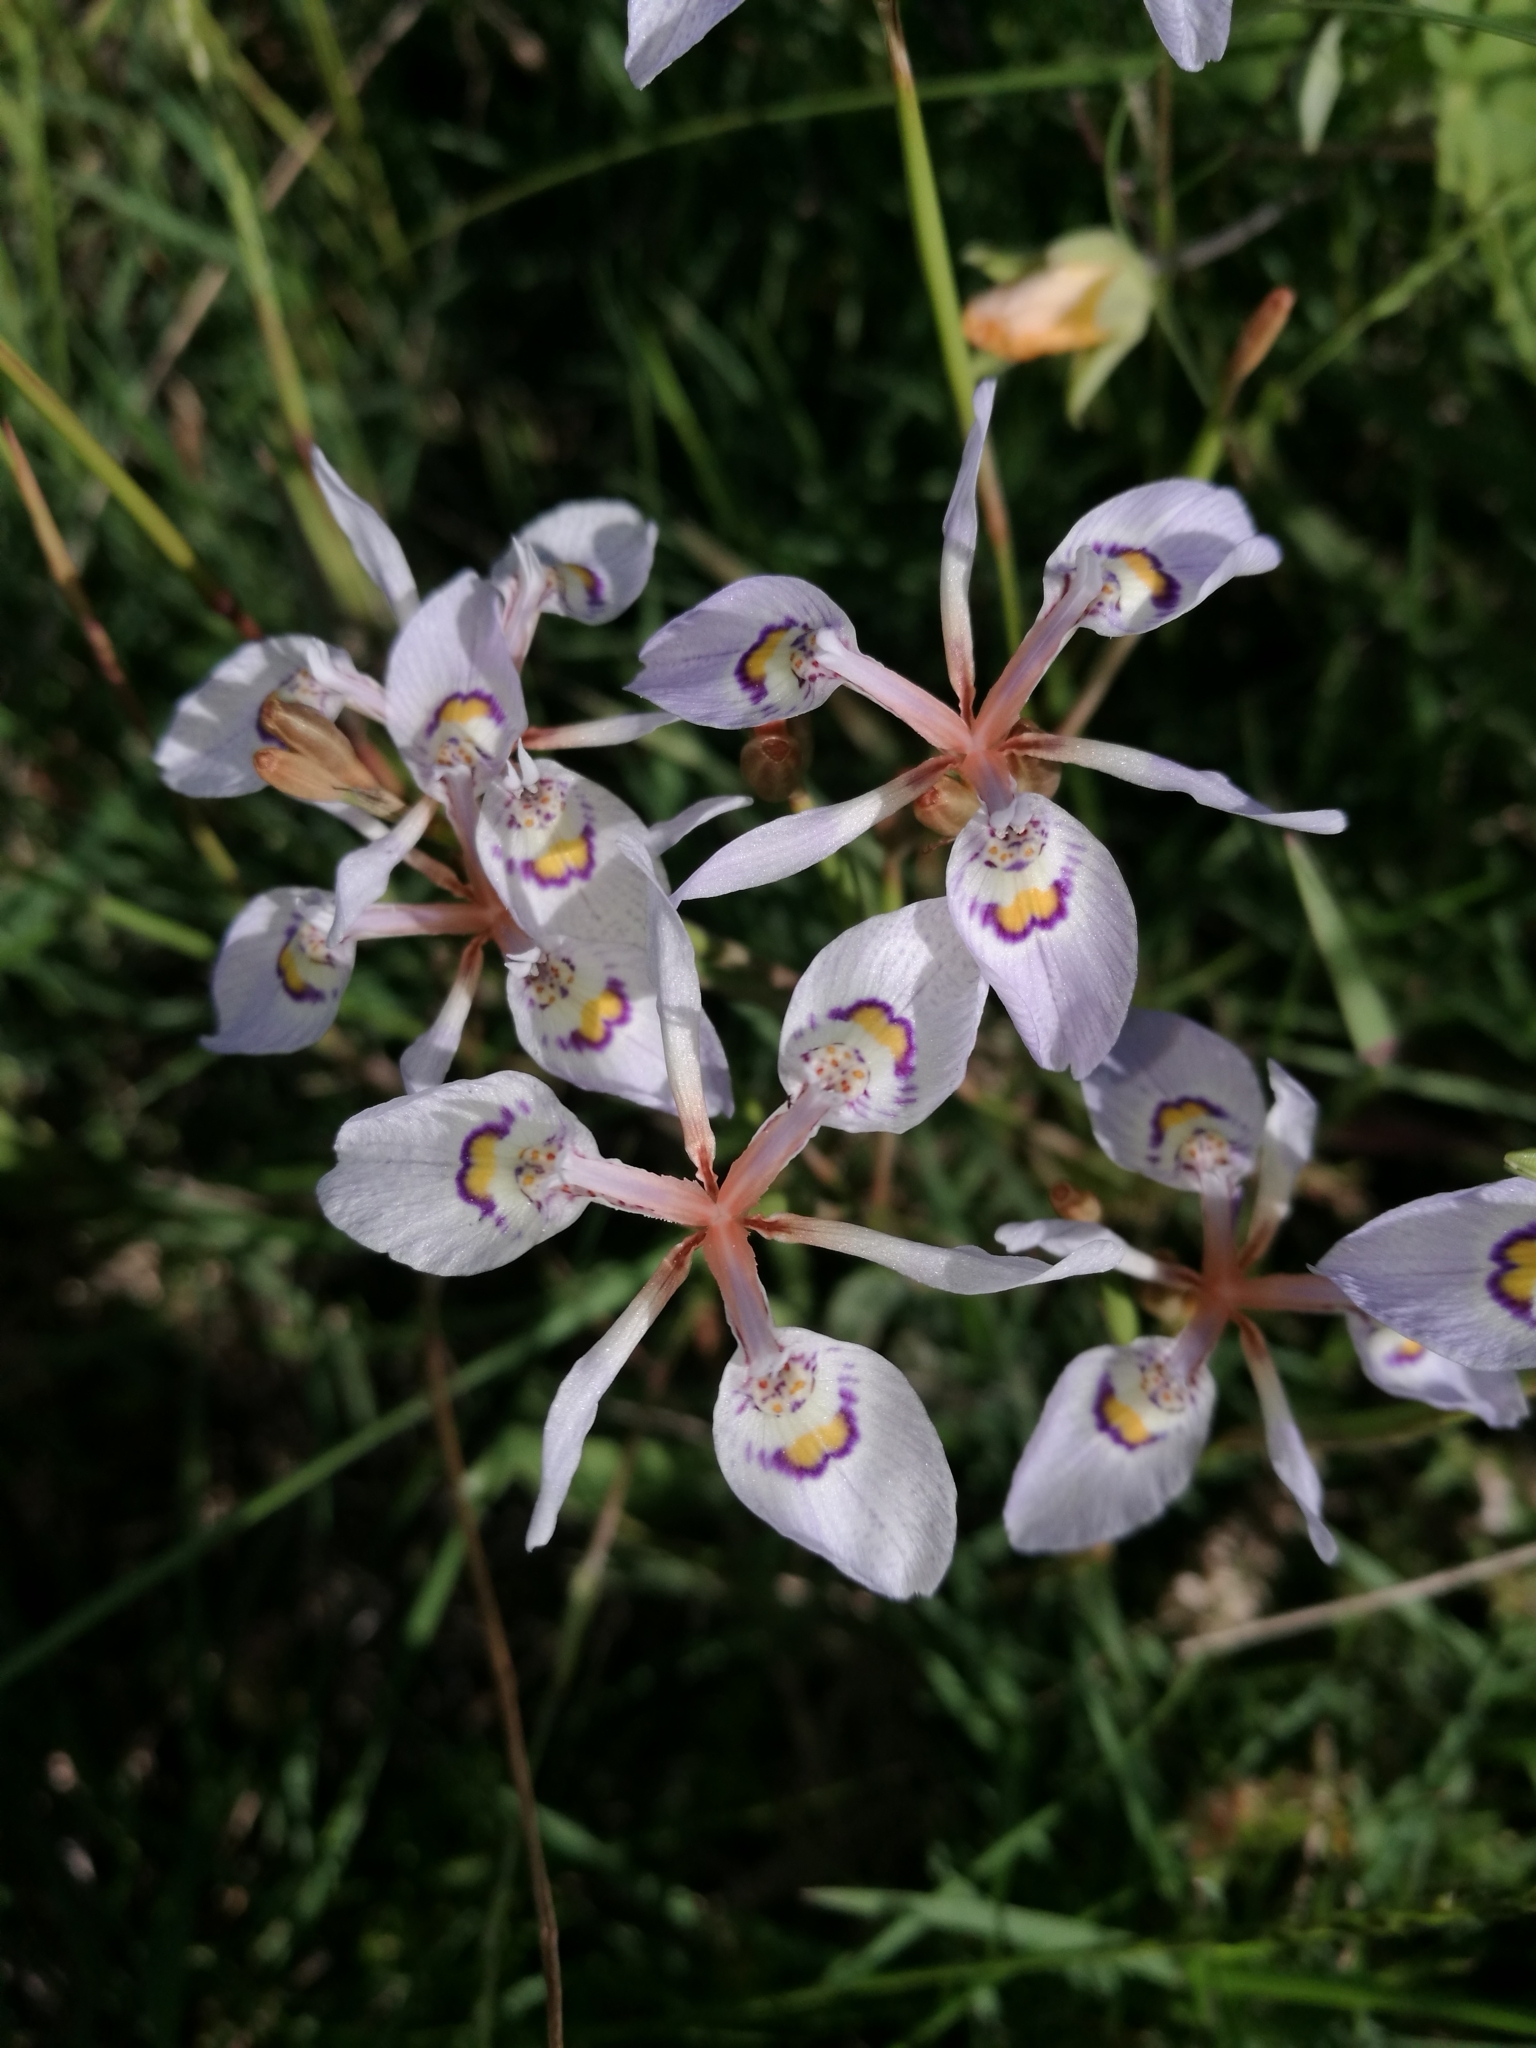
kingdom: Plantae
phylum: Tracheophyta
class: Liliopsida
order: Asparagales
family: Iridaceae
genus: Moraea
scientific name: Moraea elliotii
